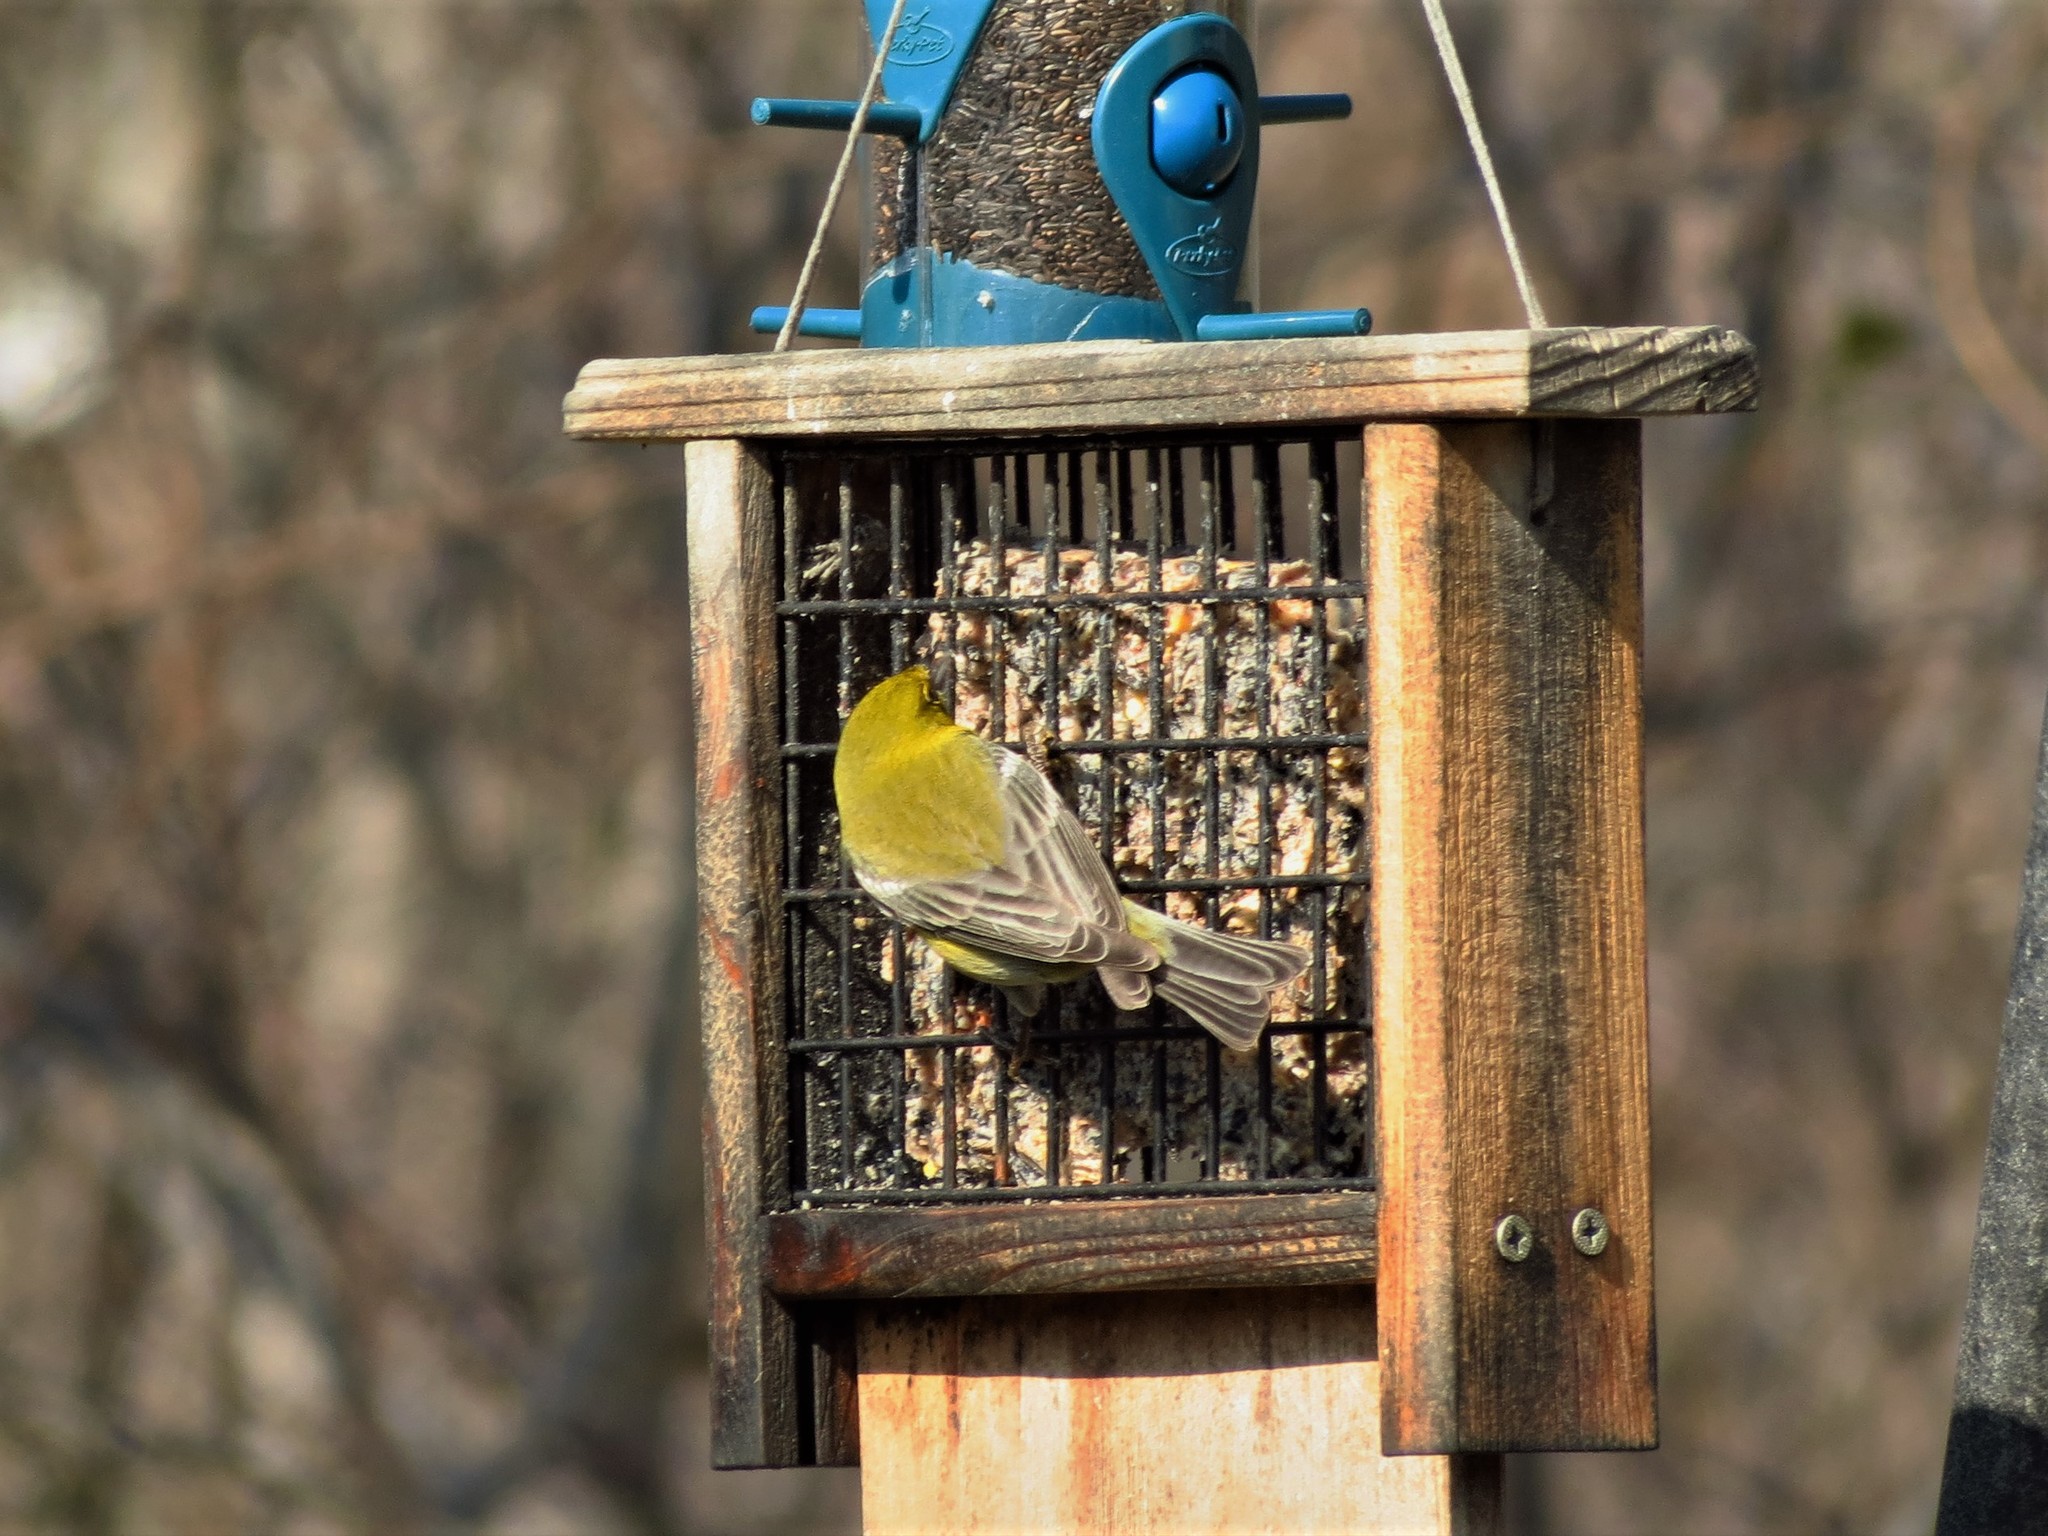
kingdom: Animalia
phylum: Chordata
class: Aves
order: Passeriformes
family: Parulidae
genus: Setophaga
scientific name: Setophaga pinus
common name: Pine warbler
